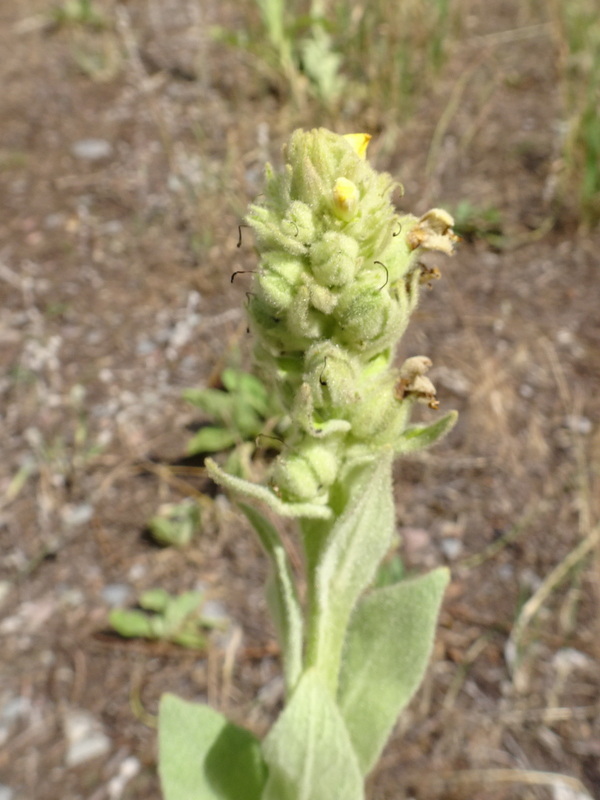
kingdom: Plantae
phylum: Tracheophyta
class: Magnoliopsida
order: Lamiales
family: Scrophulariaceae
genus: Verbascum
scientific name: Verbascum thapsus
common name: Common mullein
